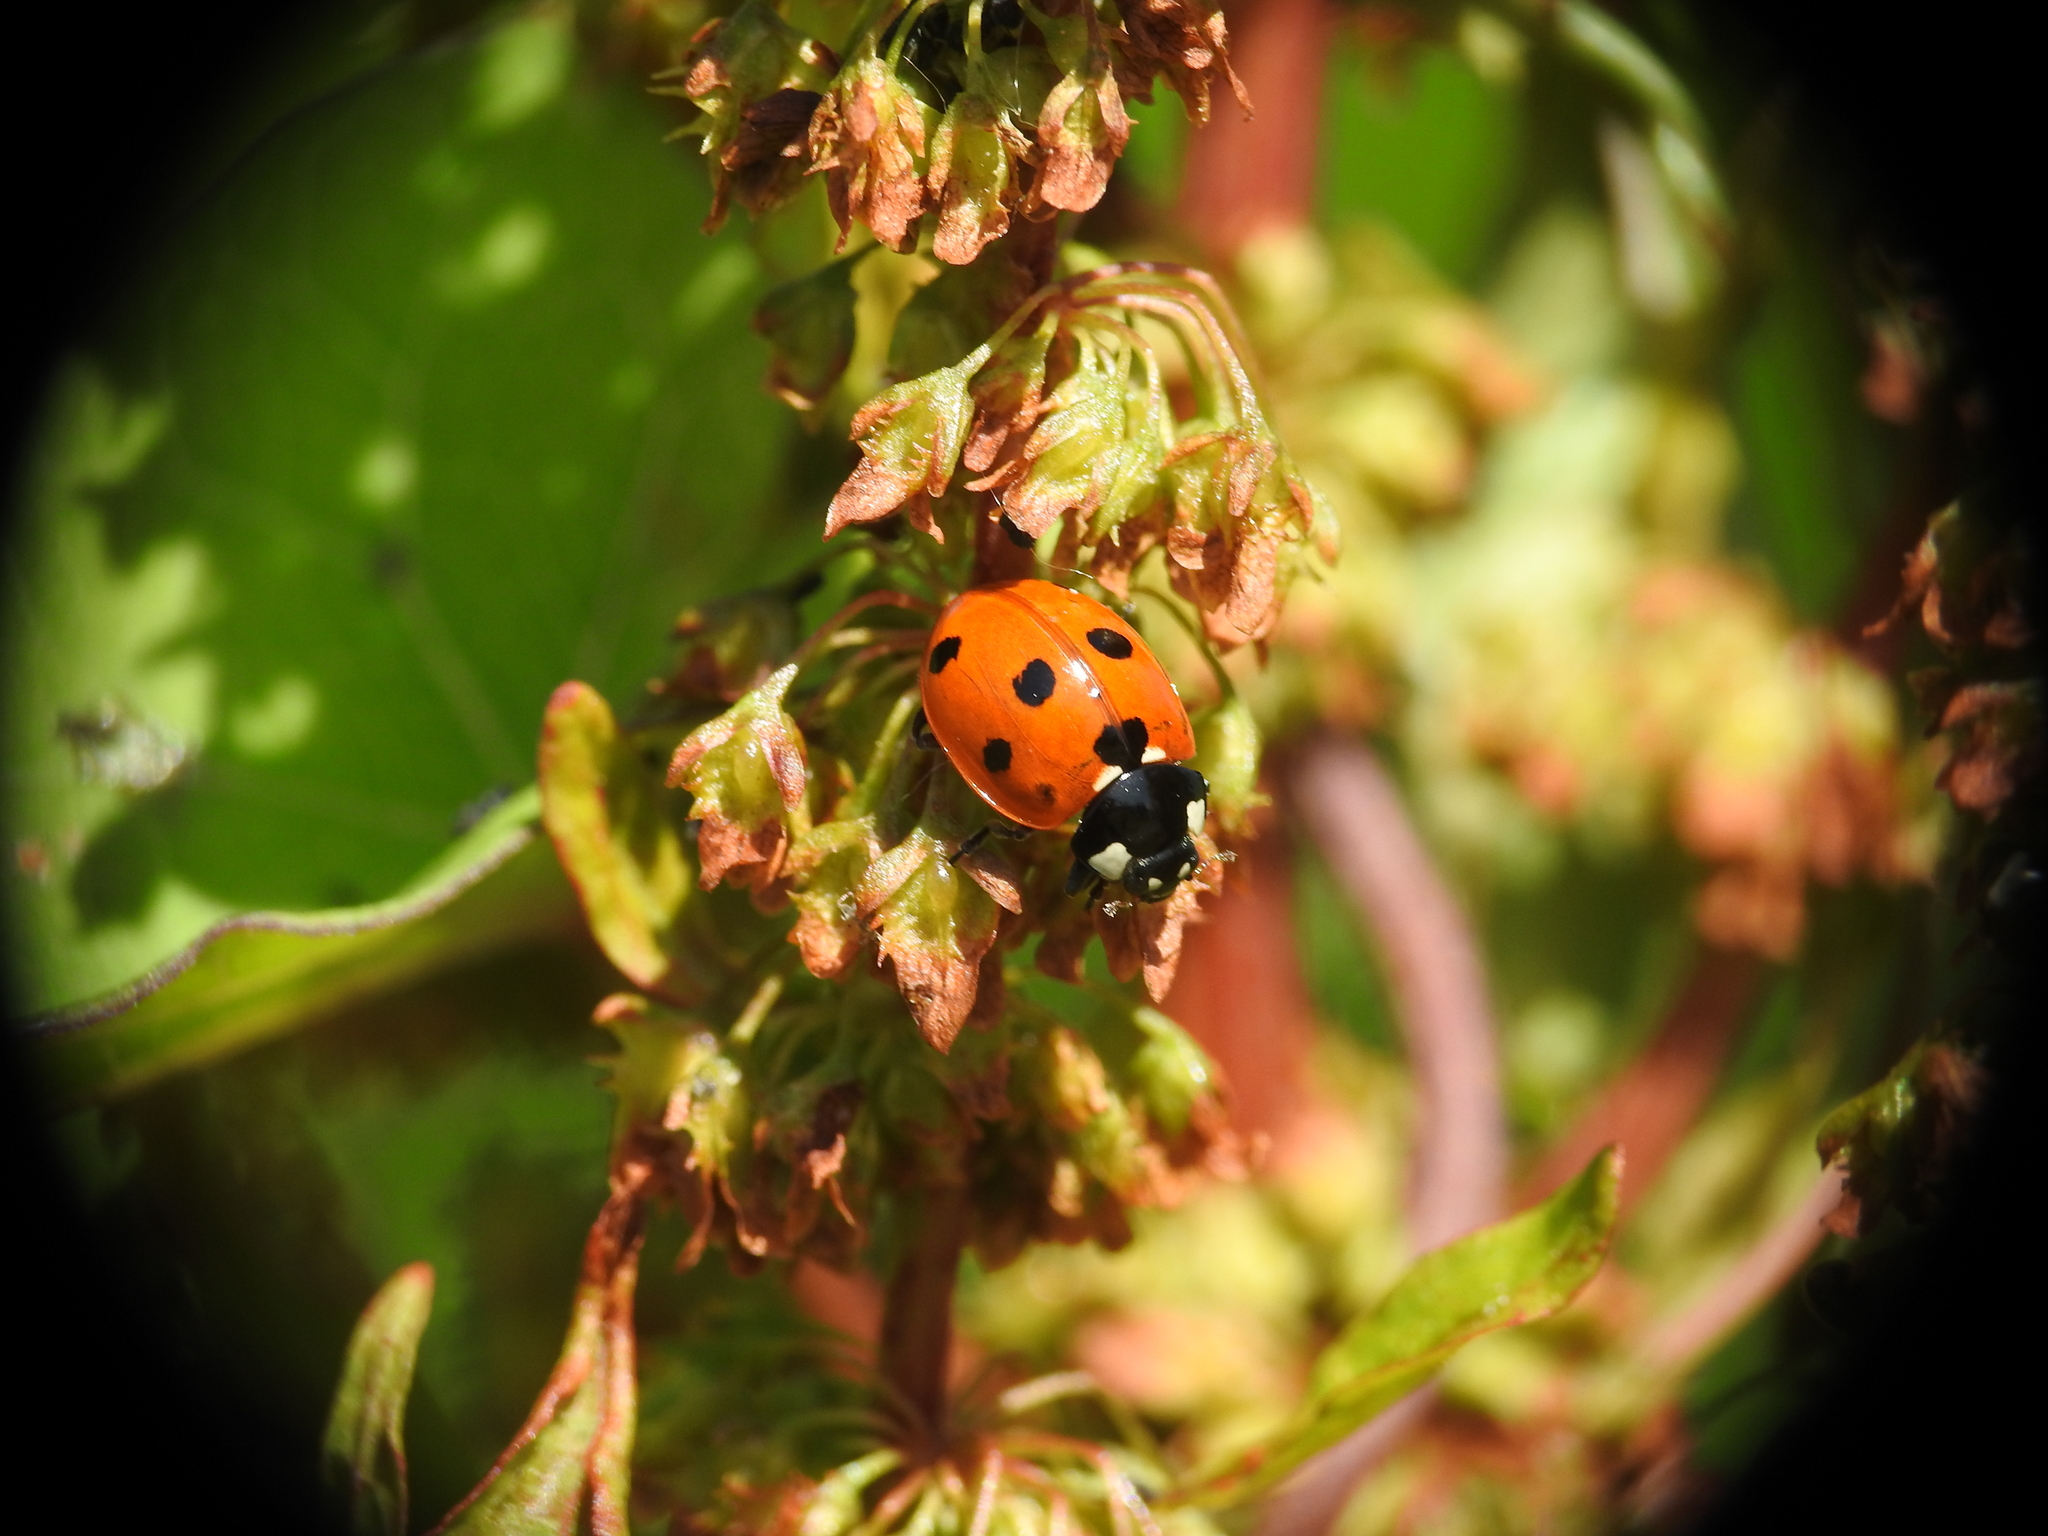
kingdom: Animalia
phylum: Arthropoda
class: Insecta
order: Coleoptera
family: Coccinellidae
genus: Coccinella
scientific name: Coccinella septempunctata
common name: Sevenspotted lady beetle
